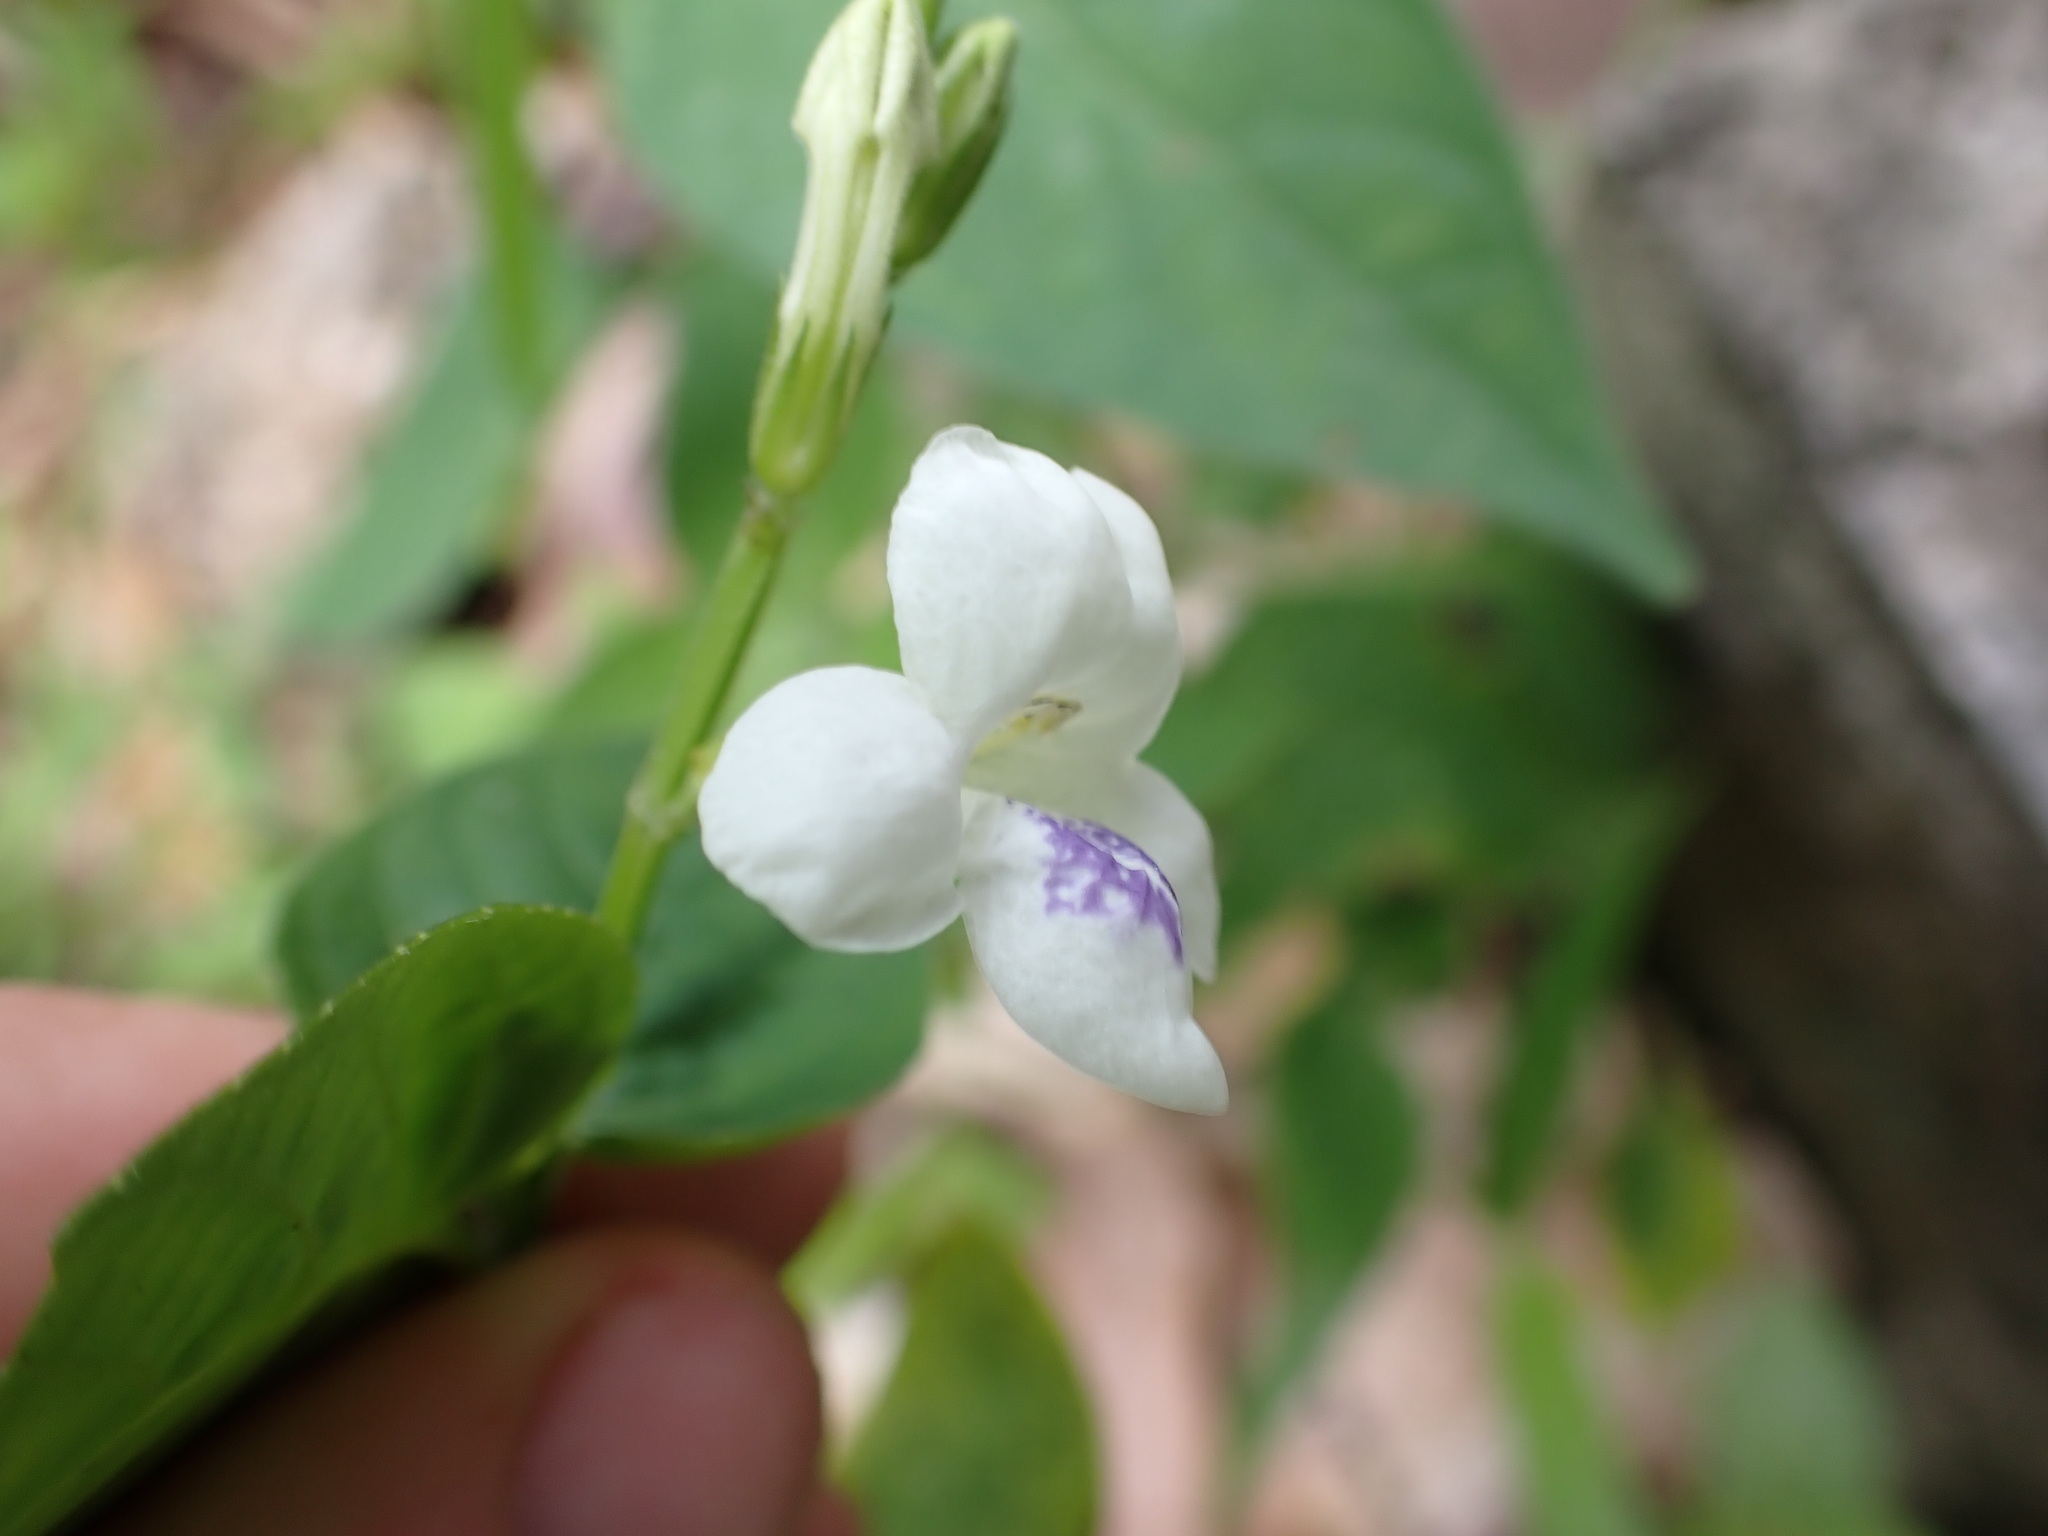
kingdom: Plantae
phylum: Tracheophyta
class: Magnoliopsida
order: Lamiales
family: Acanthaceae
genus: Asystasia
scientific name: Asystasia intrusa
